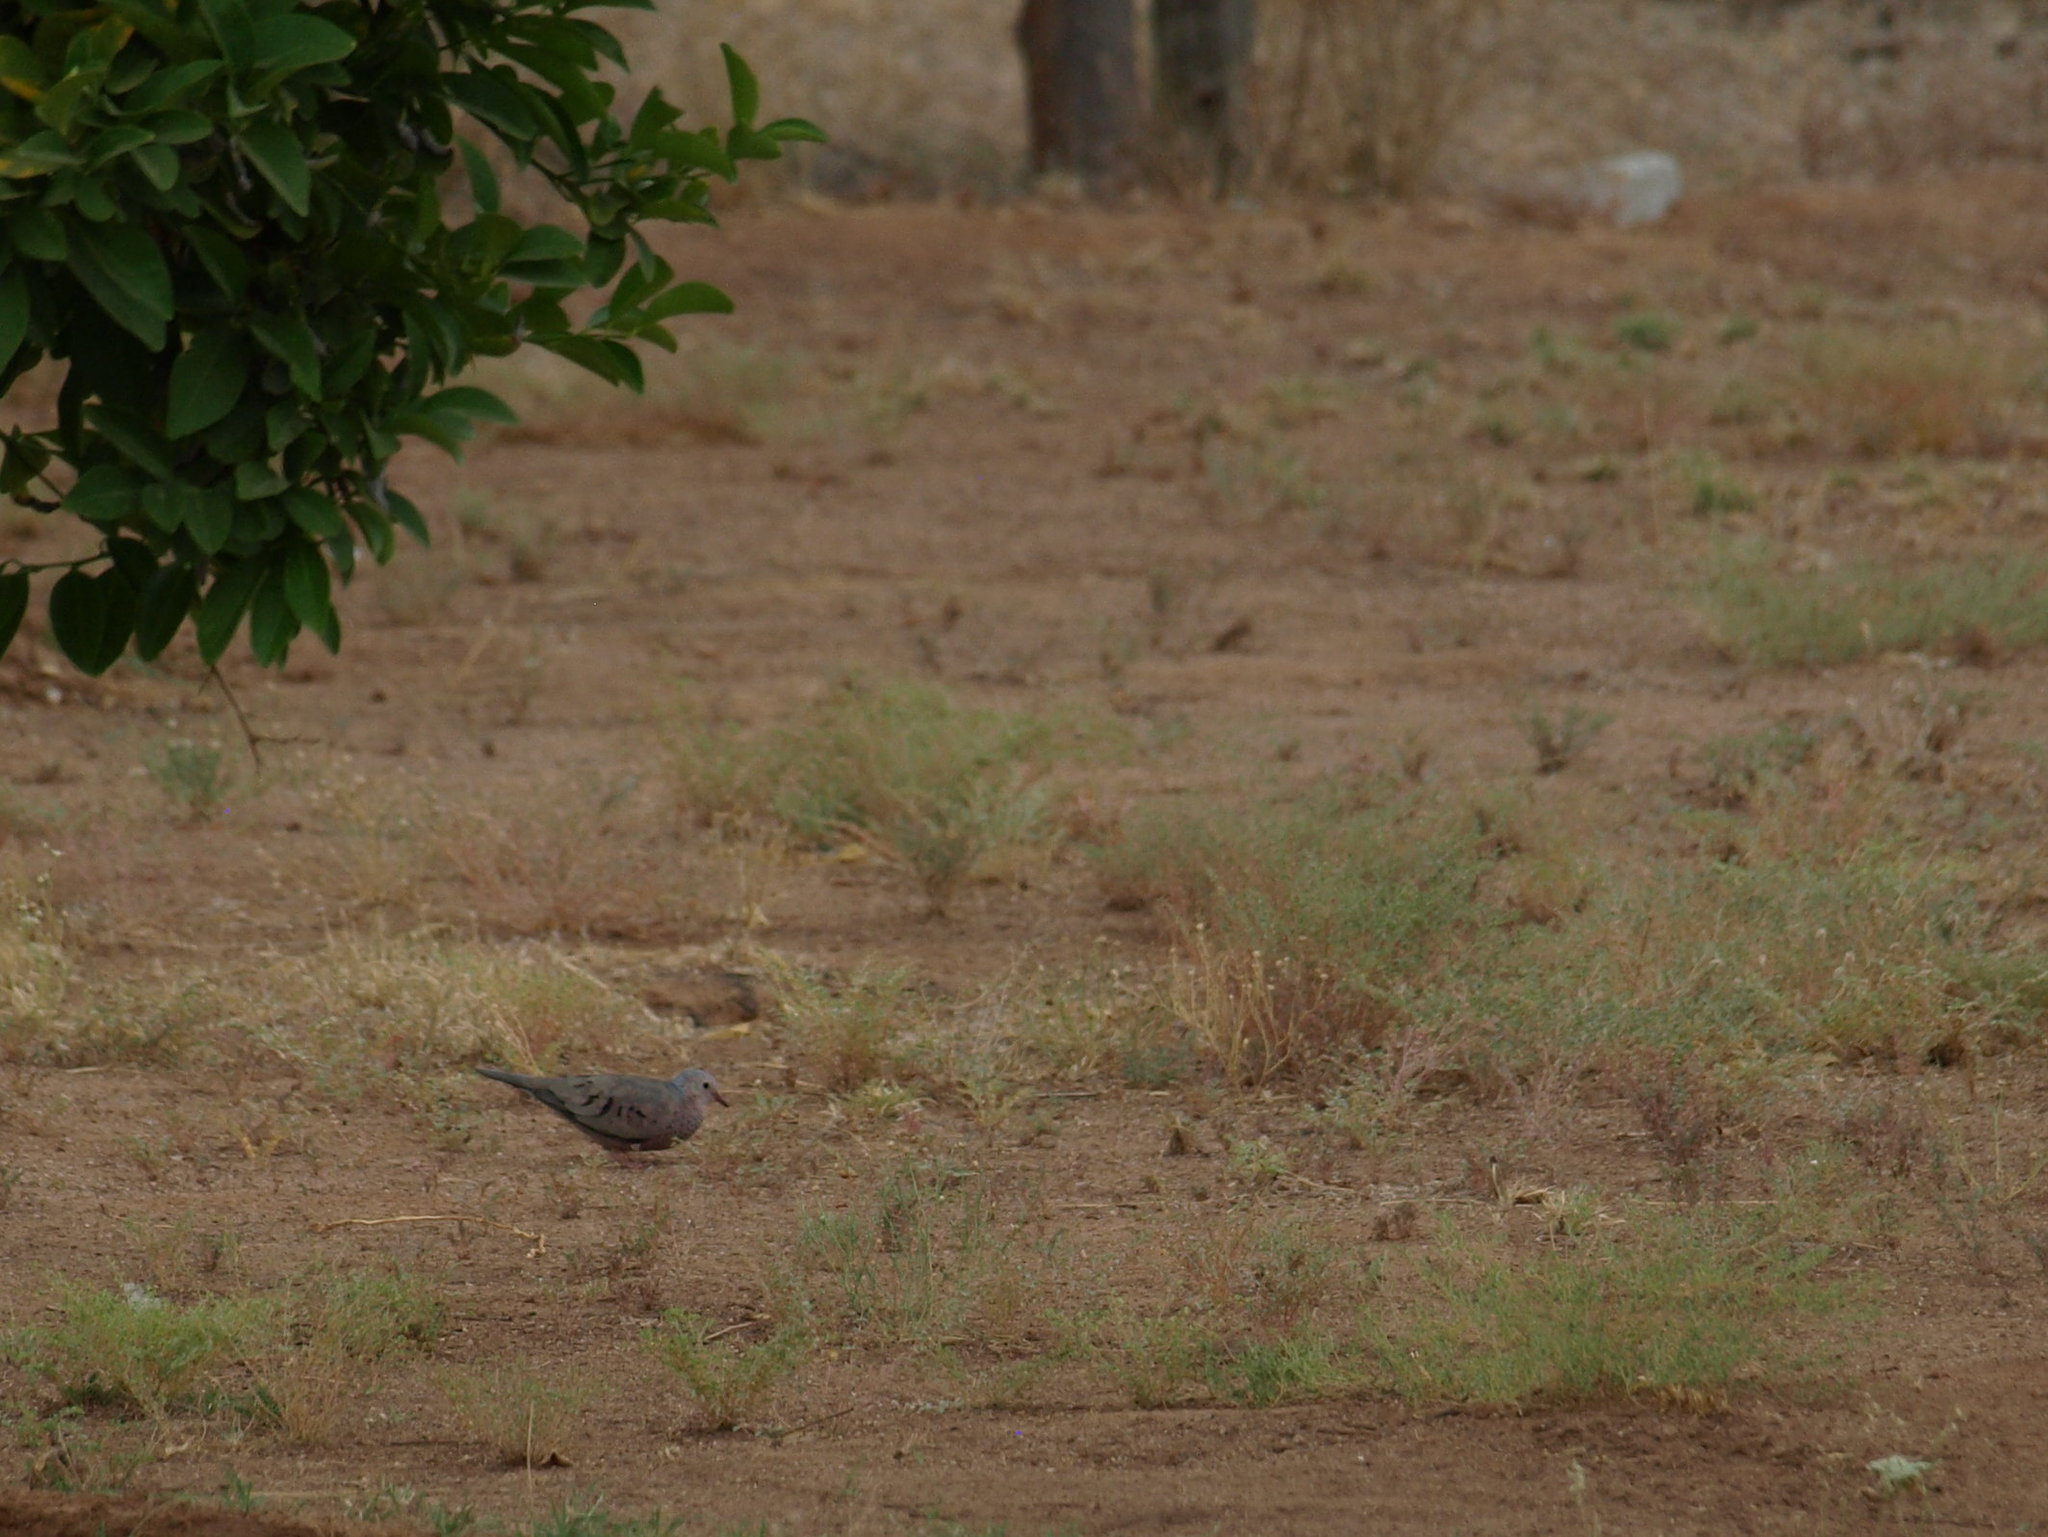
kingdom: Animalia
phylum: Chordata
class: Aves
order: Columbiformes
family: Columbidae
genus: Columbina
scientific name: Columbina passerina
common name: Common ground-dove
